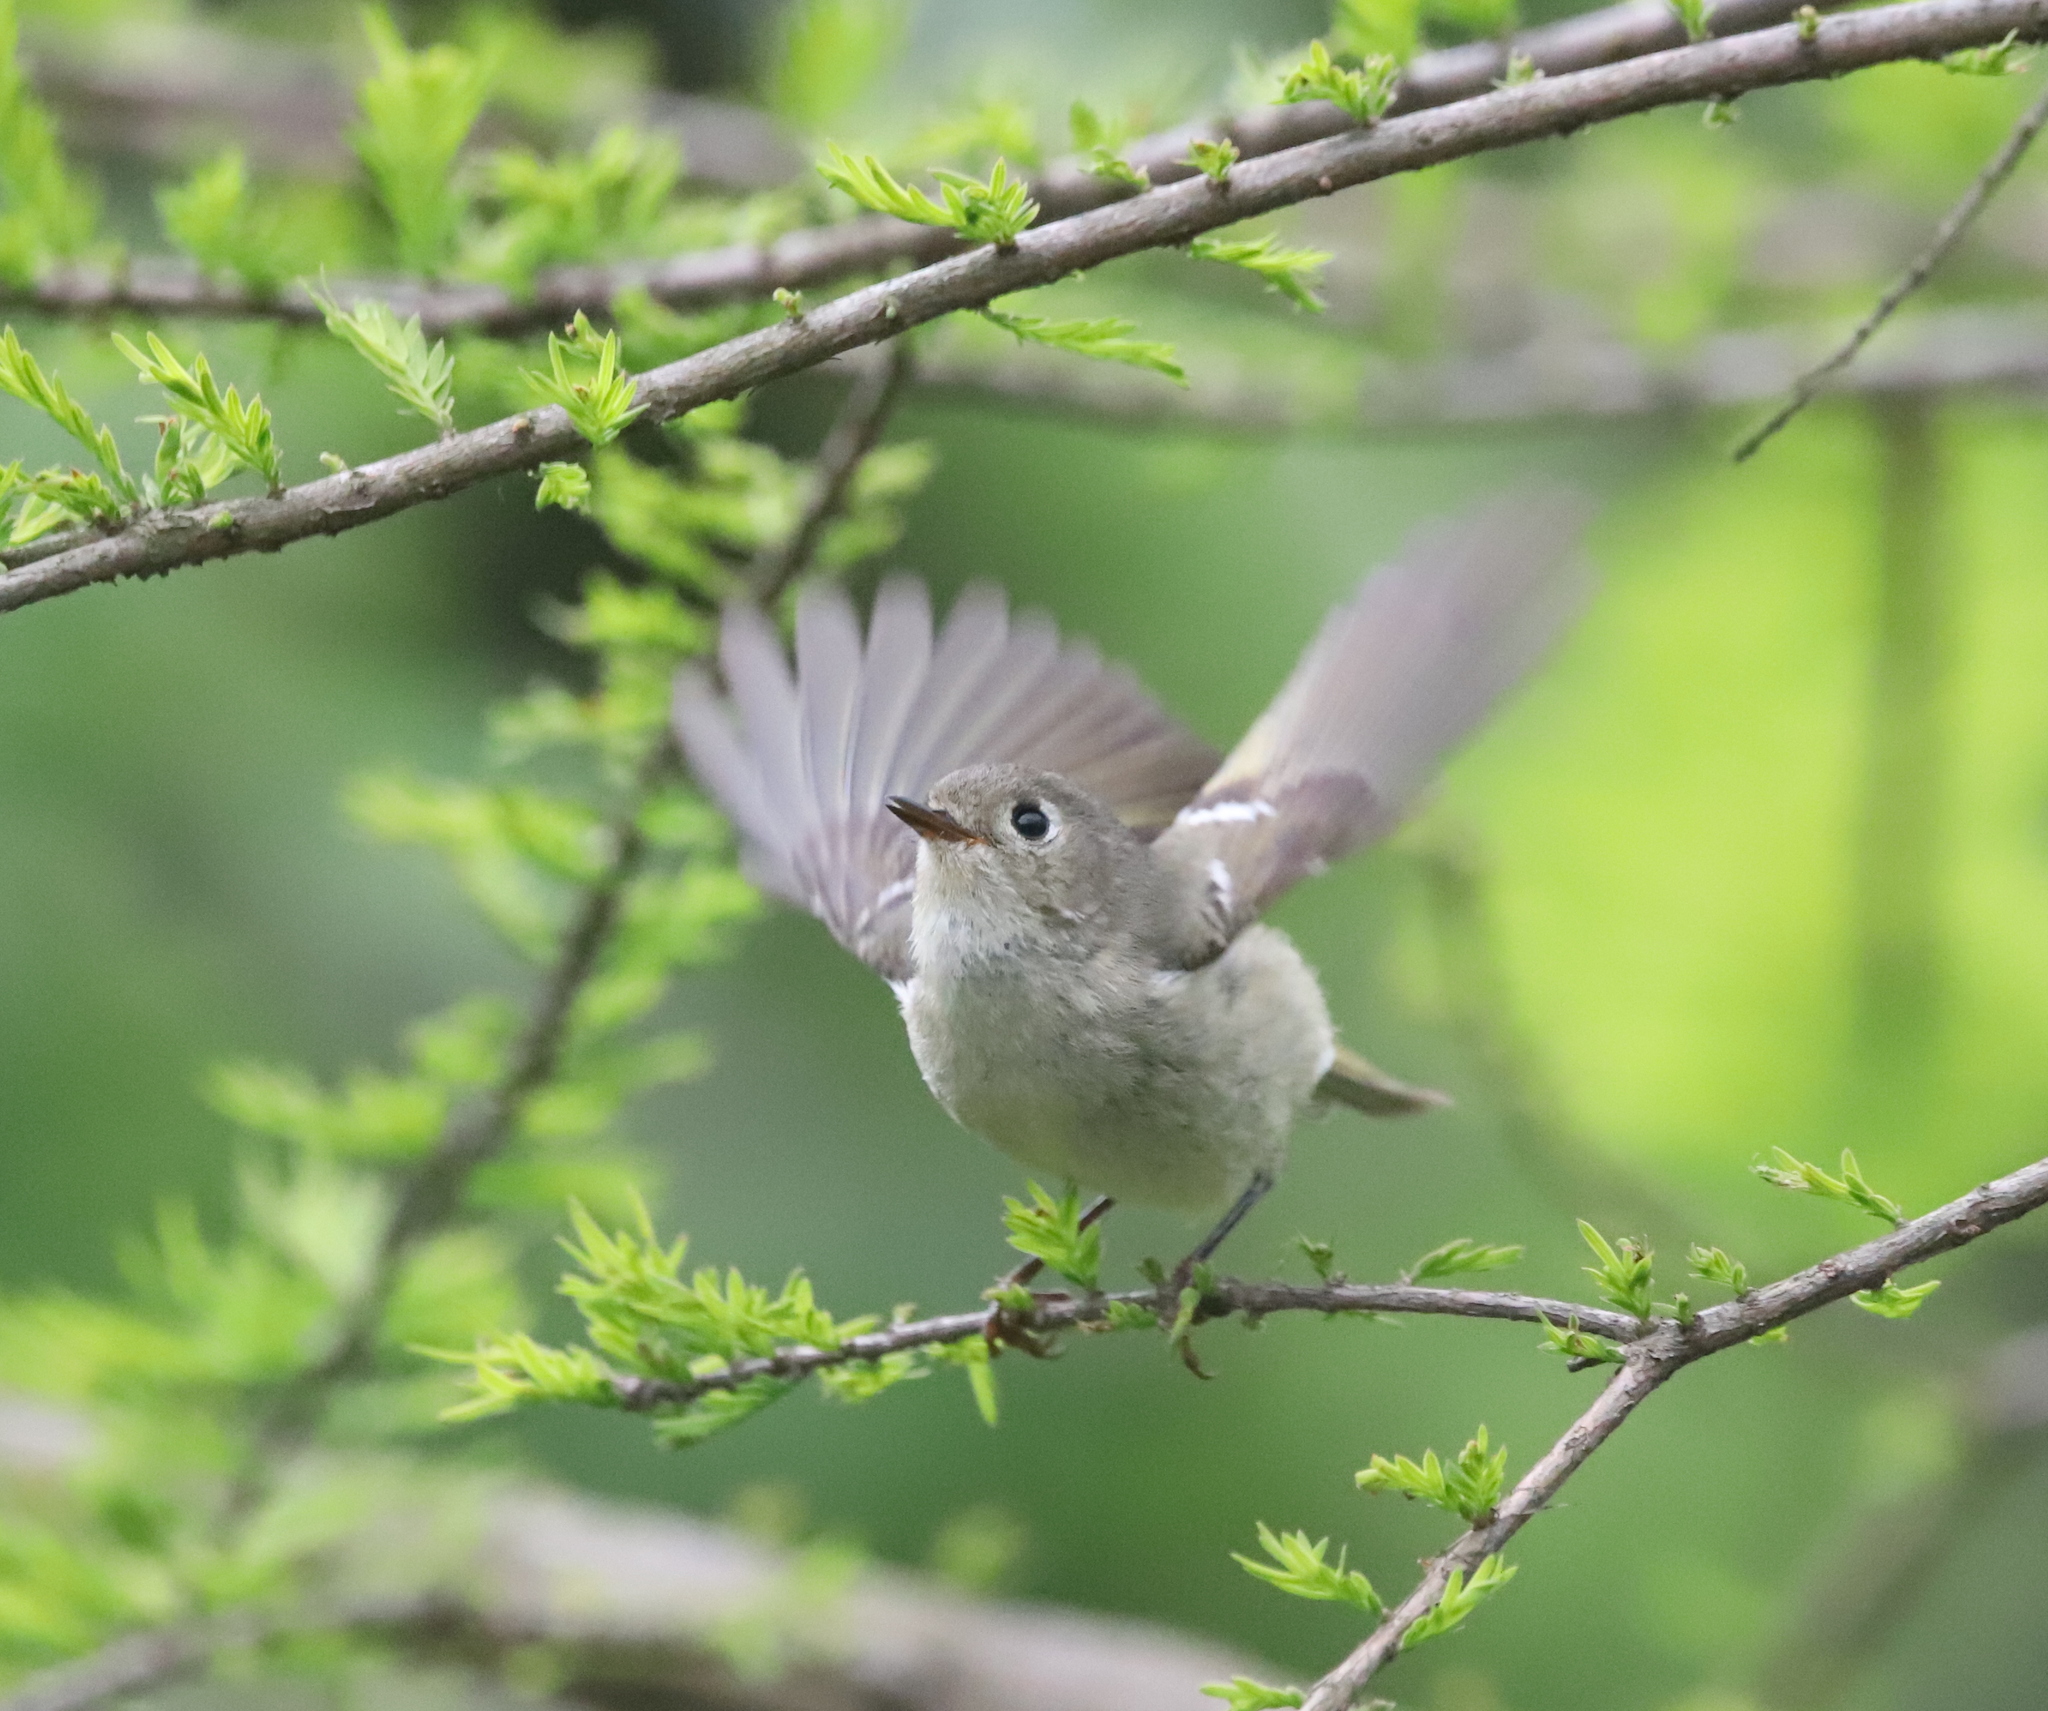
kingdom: Animalia
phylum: Chordata
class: Aves
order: Passeriformes
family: Regulidae
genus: Regulus
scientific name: Regulus calendula
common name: Ruby-crowned kinglet
